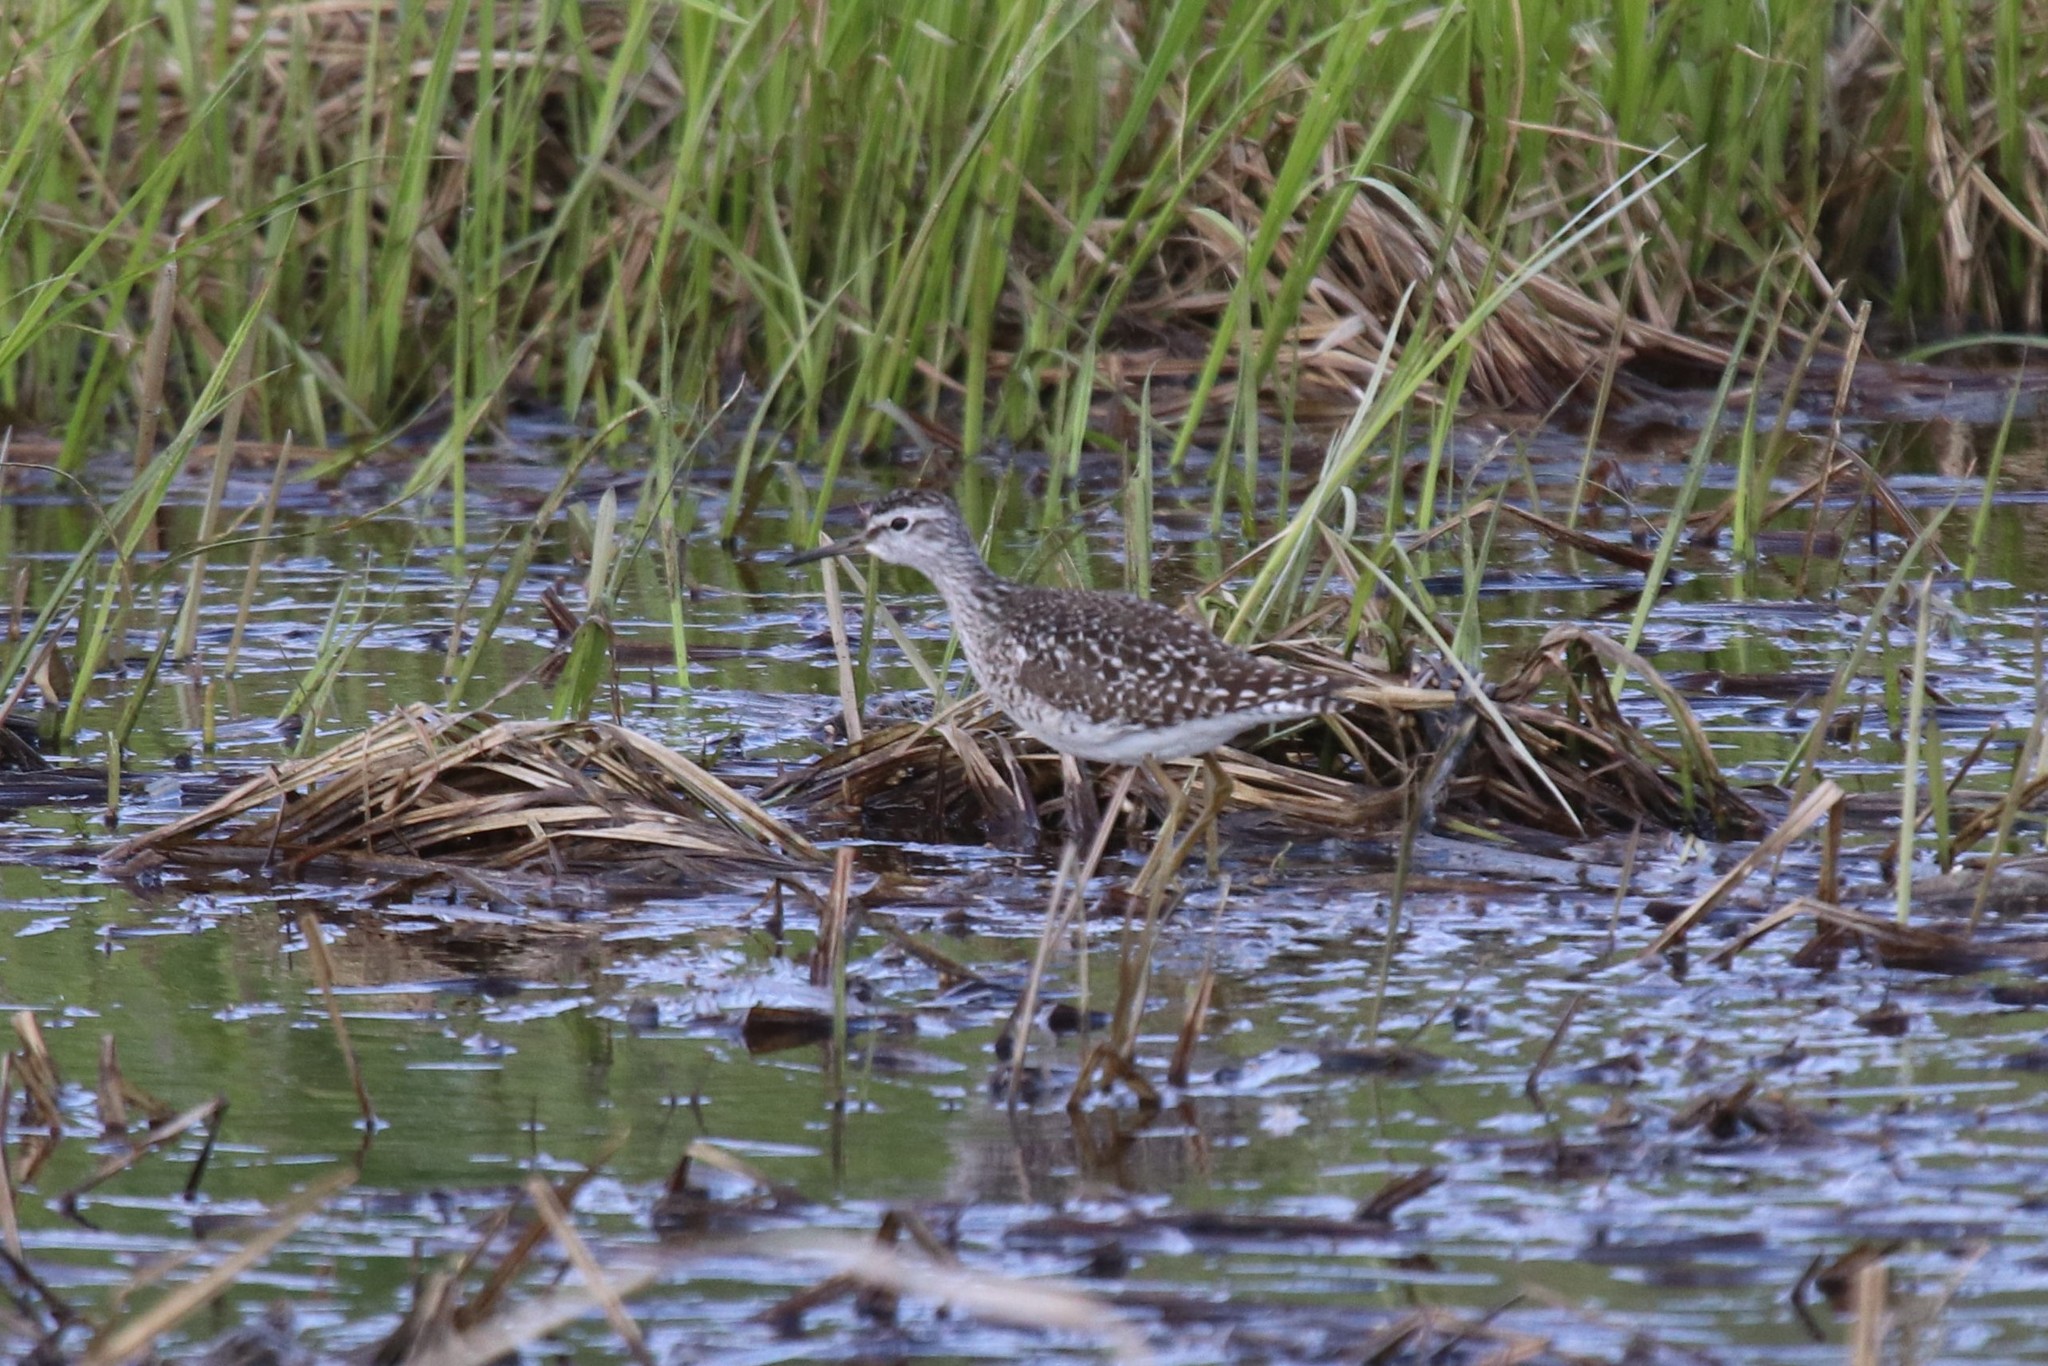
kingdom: Animalia
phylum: Chordata
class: Aves
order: Charadriiformes
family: Scolopacidae
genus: Tringa
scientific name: Tringa glareola
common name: Wood sandpiper
